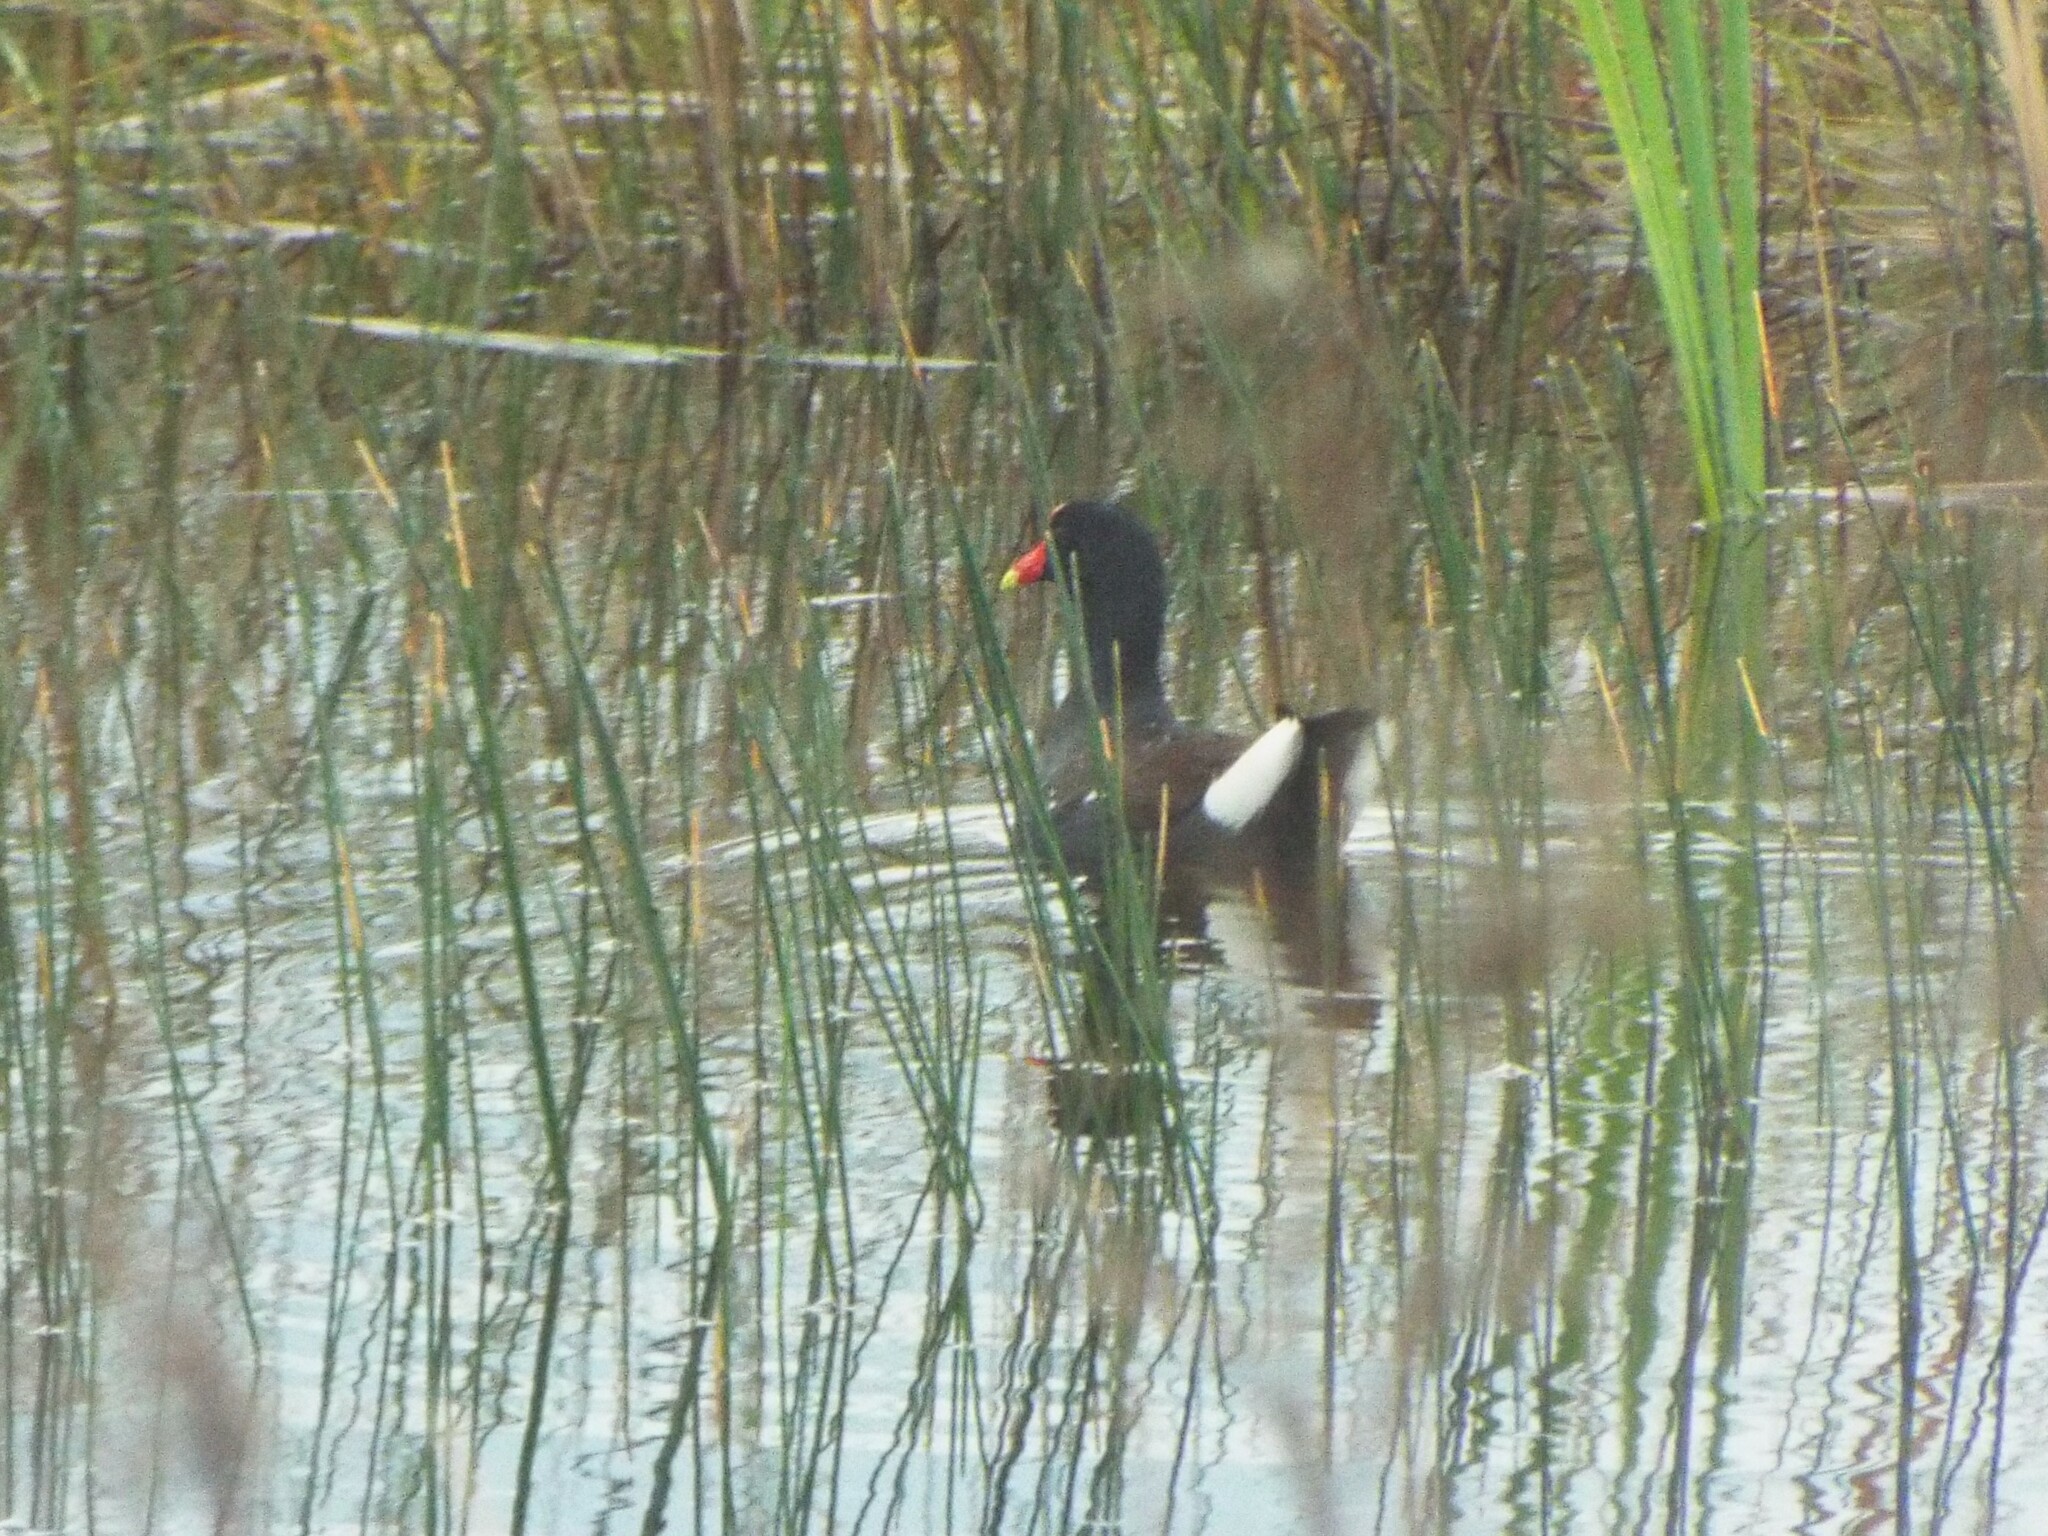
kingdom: Animalia
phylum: Chordata
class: Aves
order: Gruiformes
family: Rallidae
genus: Gallinula
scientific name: Gallinula chloropus
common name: Common moorhen
